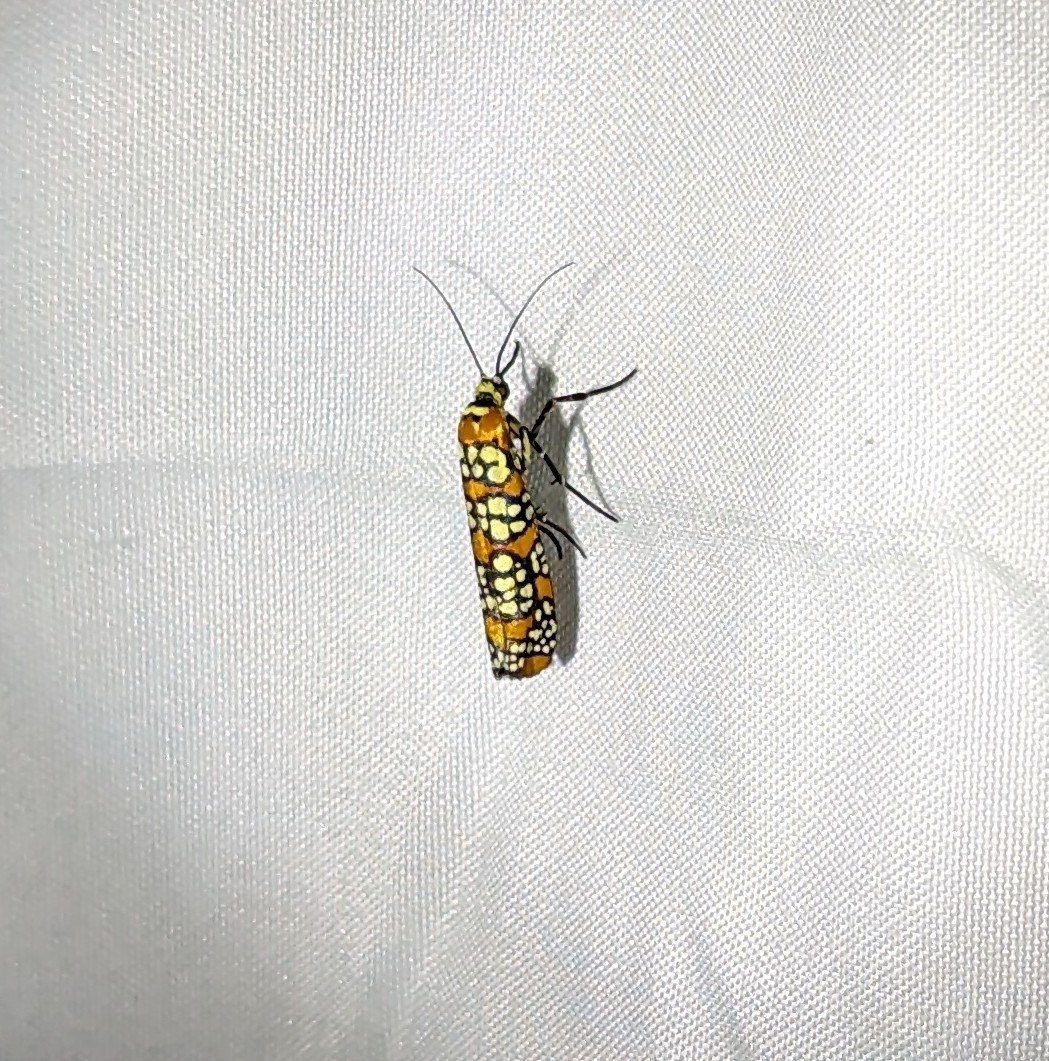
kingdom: Animalia
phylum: Arthropoda
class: Insecta
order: Lepidoptera
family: Attevidae
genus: Atteva
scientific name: Atteva punctella
